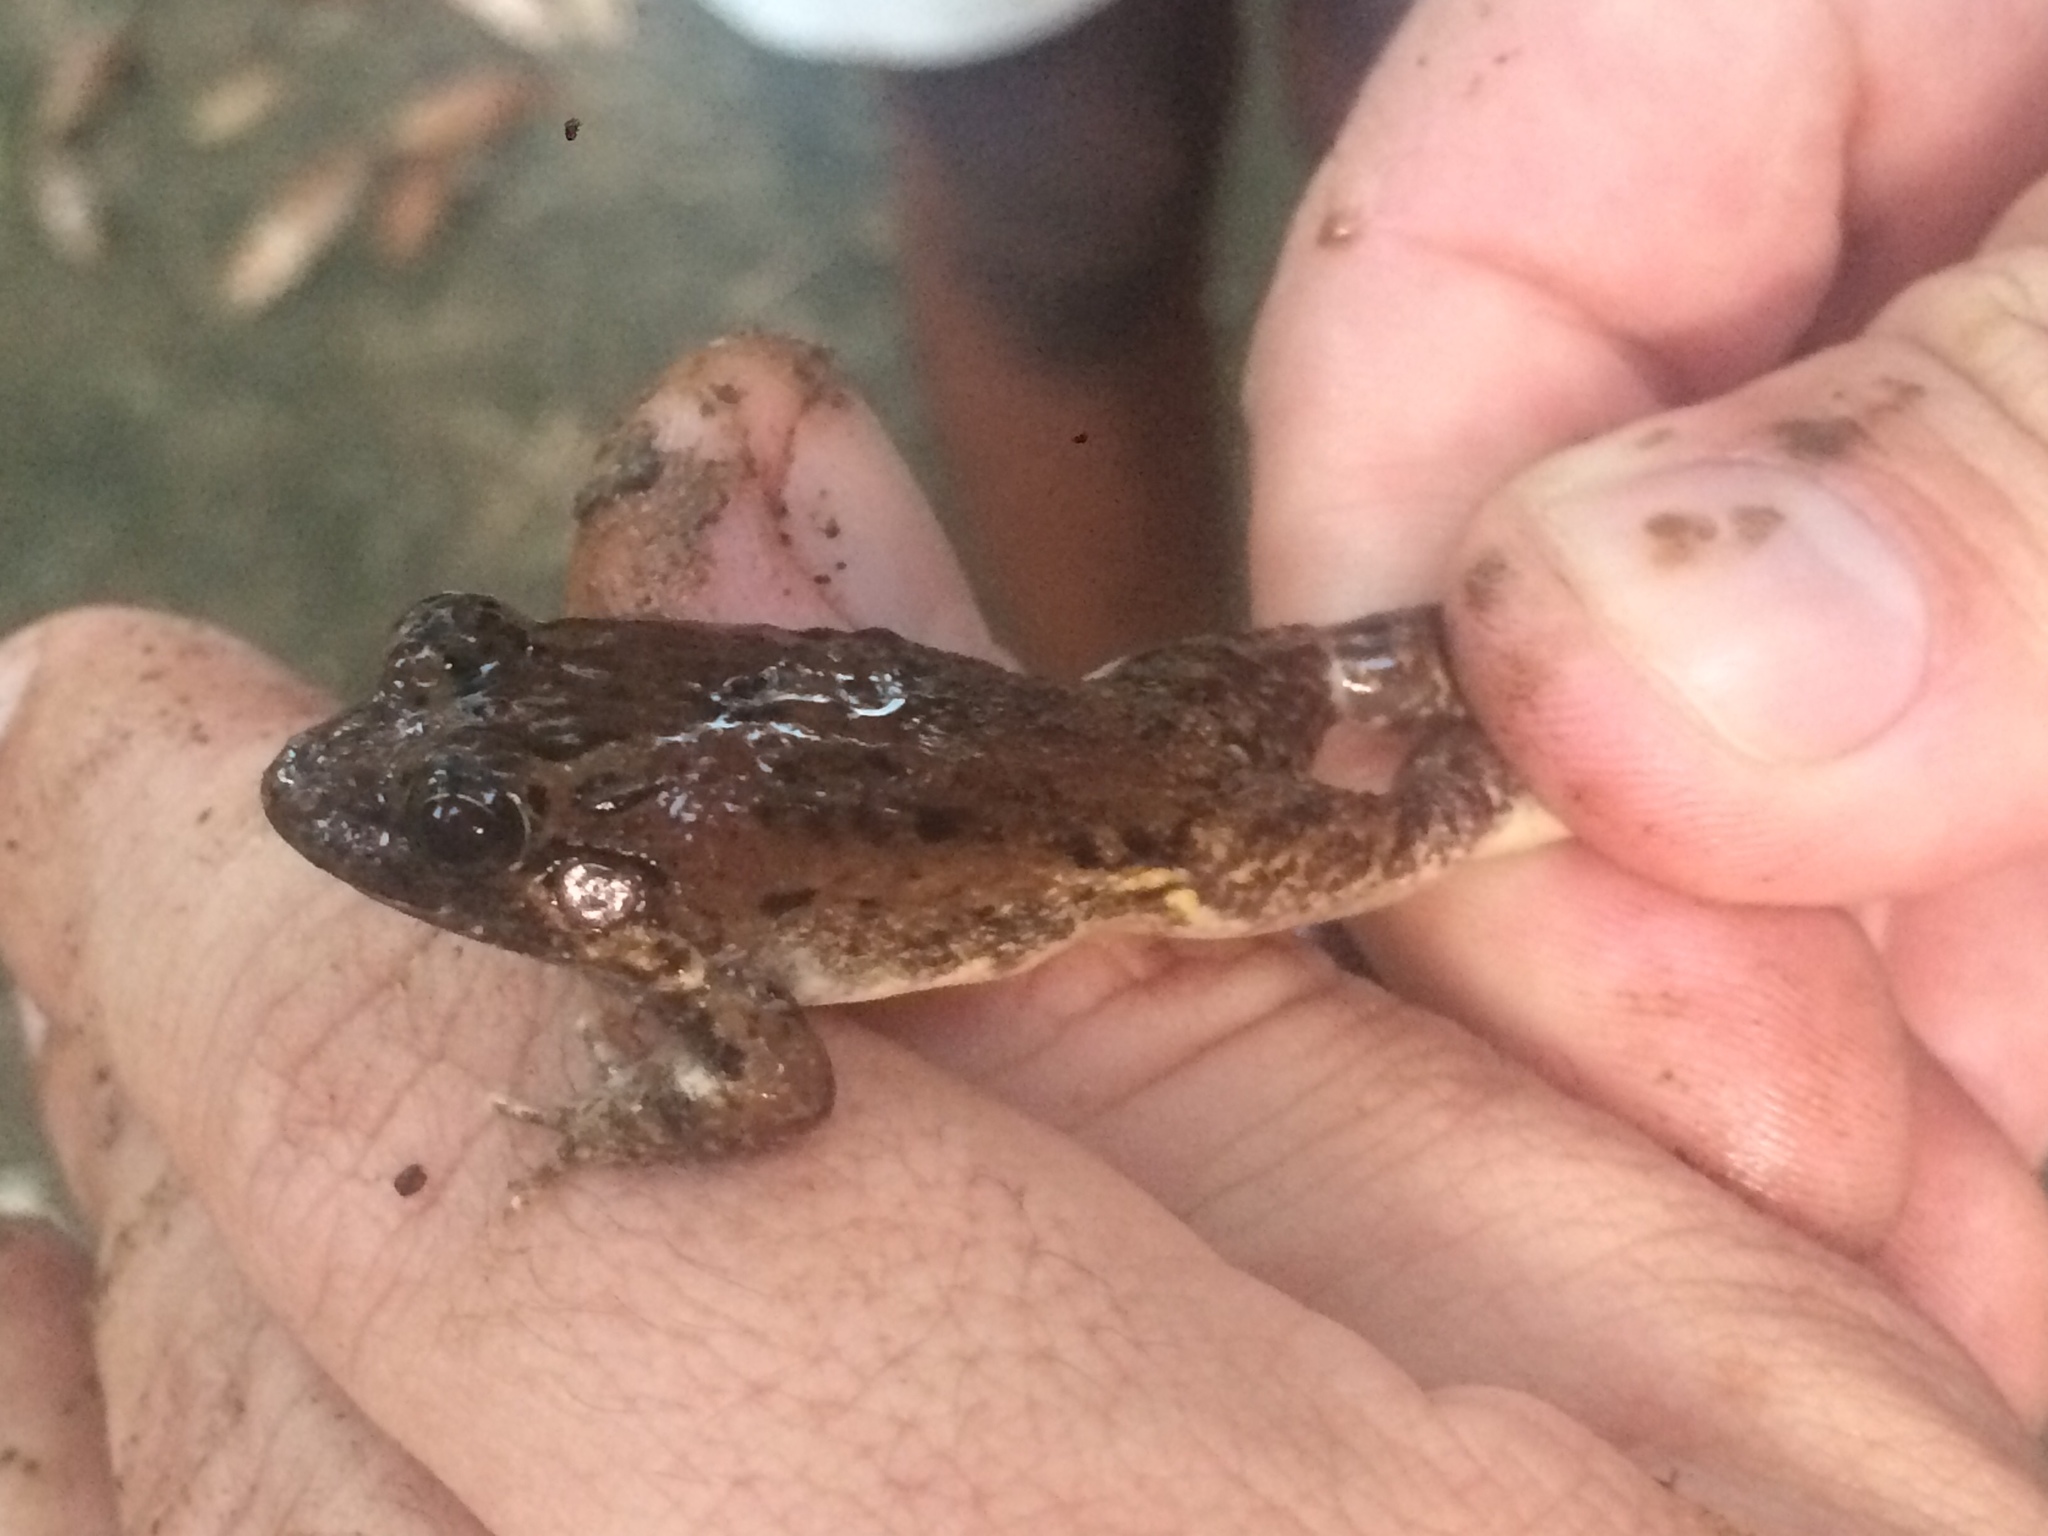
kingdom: Animalia
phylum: Chordata
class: Amphibia
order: Anura
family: Leptodactylidae
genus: Leptodactylus
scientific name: Leptodactylus natalensis
